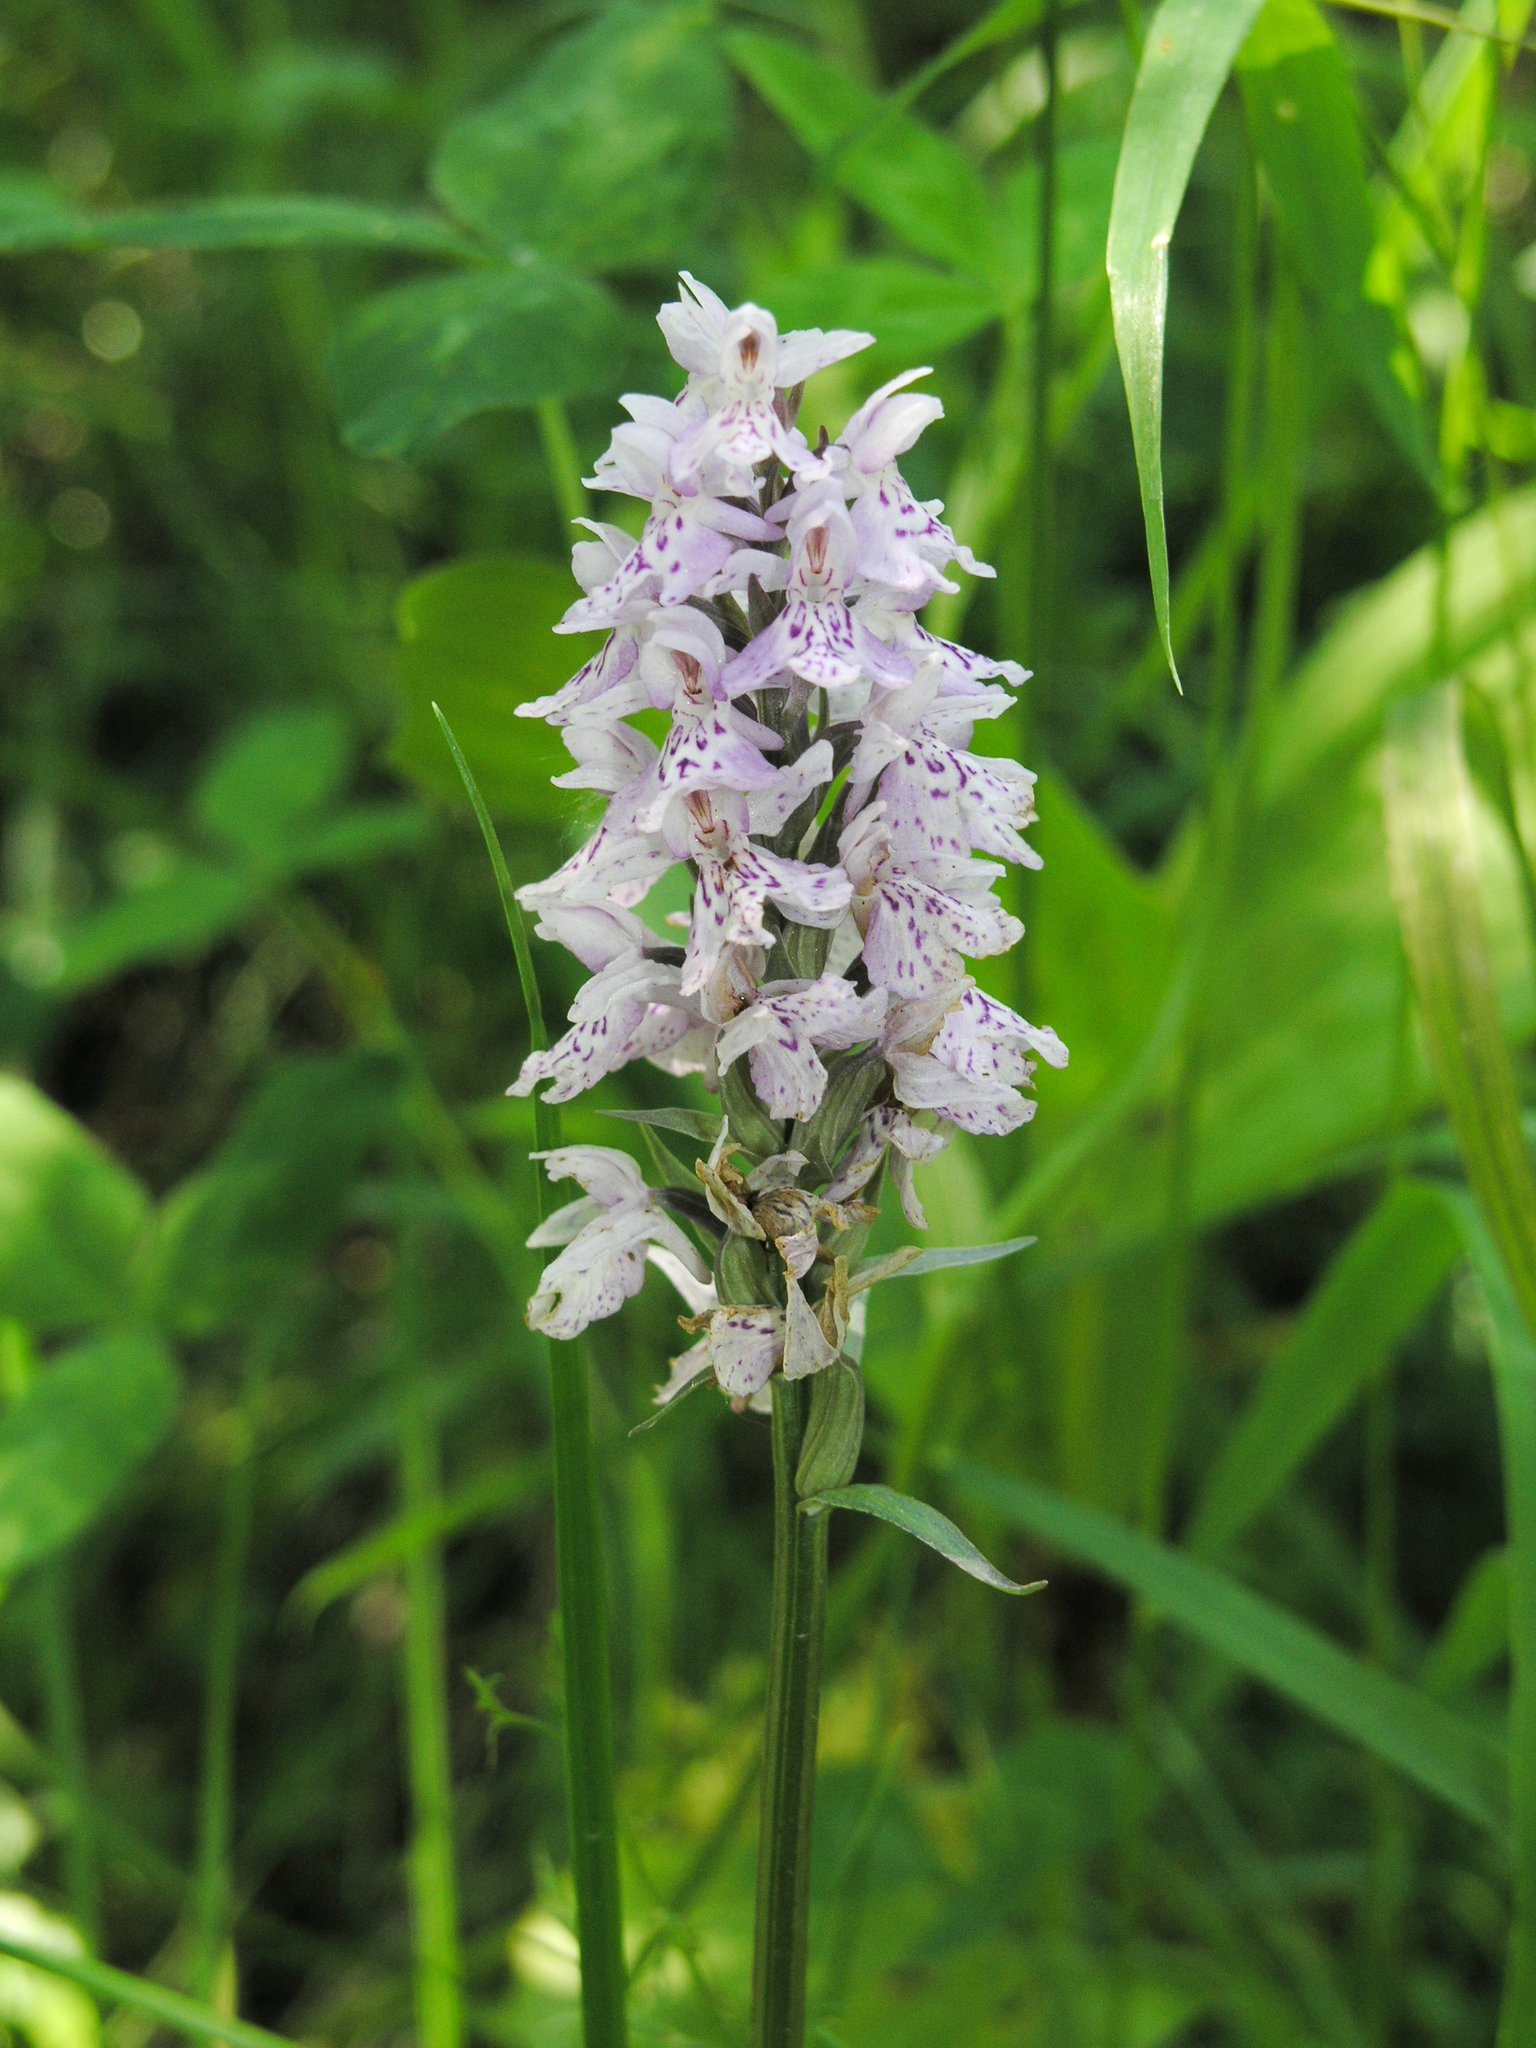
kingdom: Plantae
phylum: Tracheophyta
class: Liliopsida
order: Asparagales
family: Orchidaceae
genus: Dactylorhiza
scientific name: Dactylorhiza maculata
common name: Heath spotted-orchid
